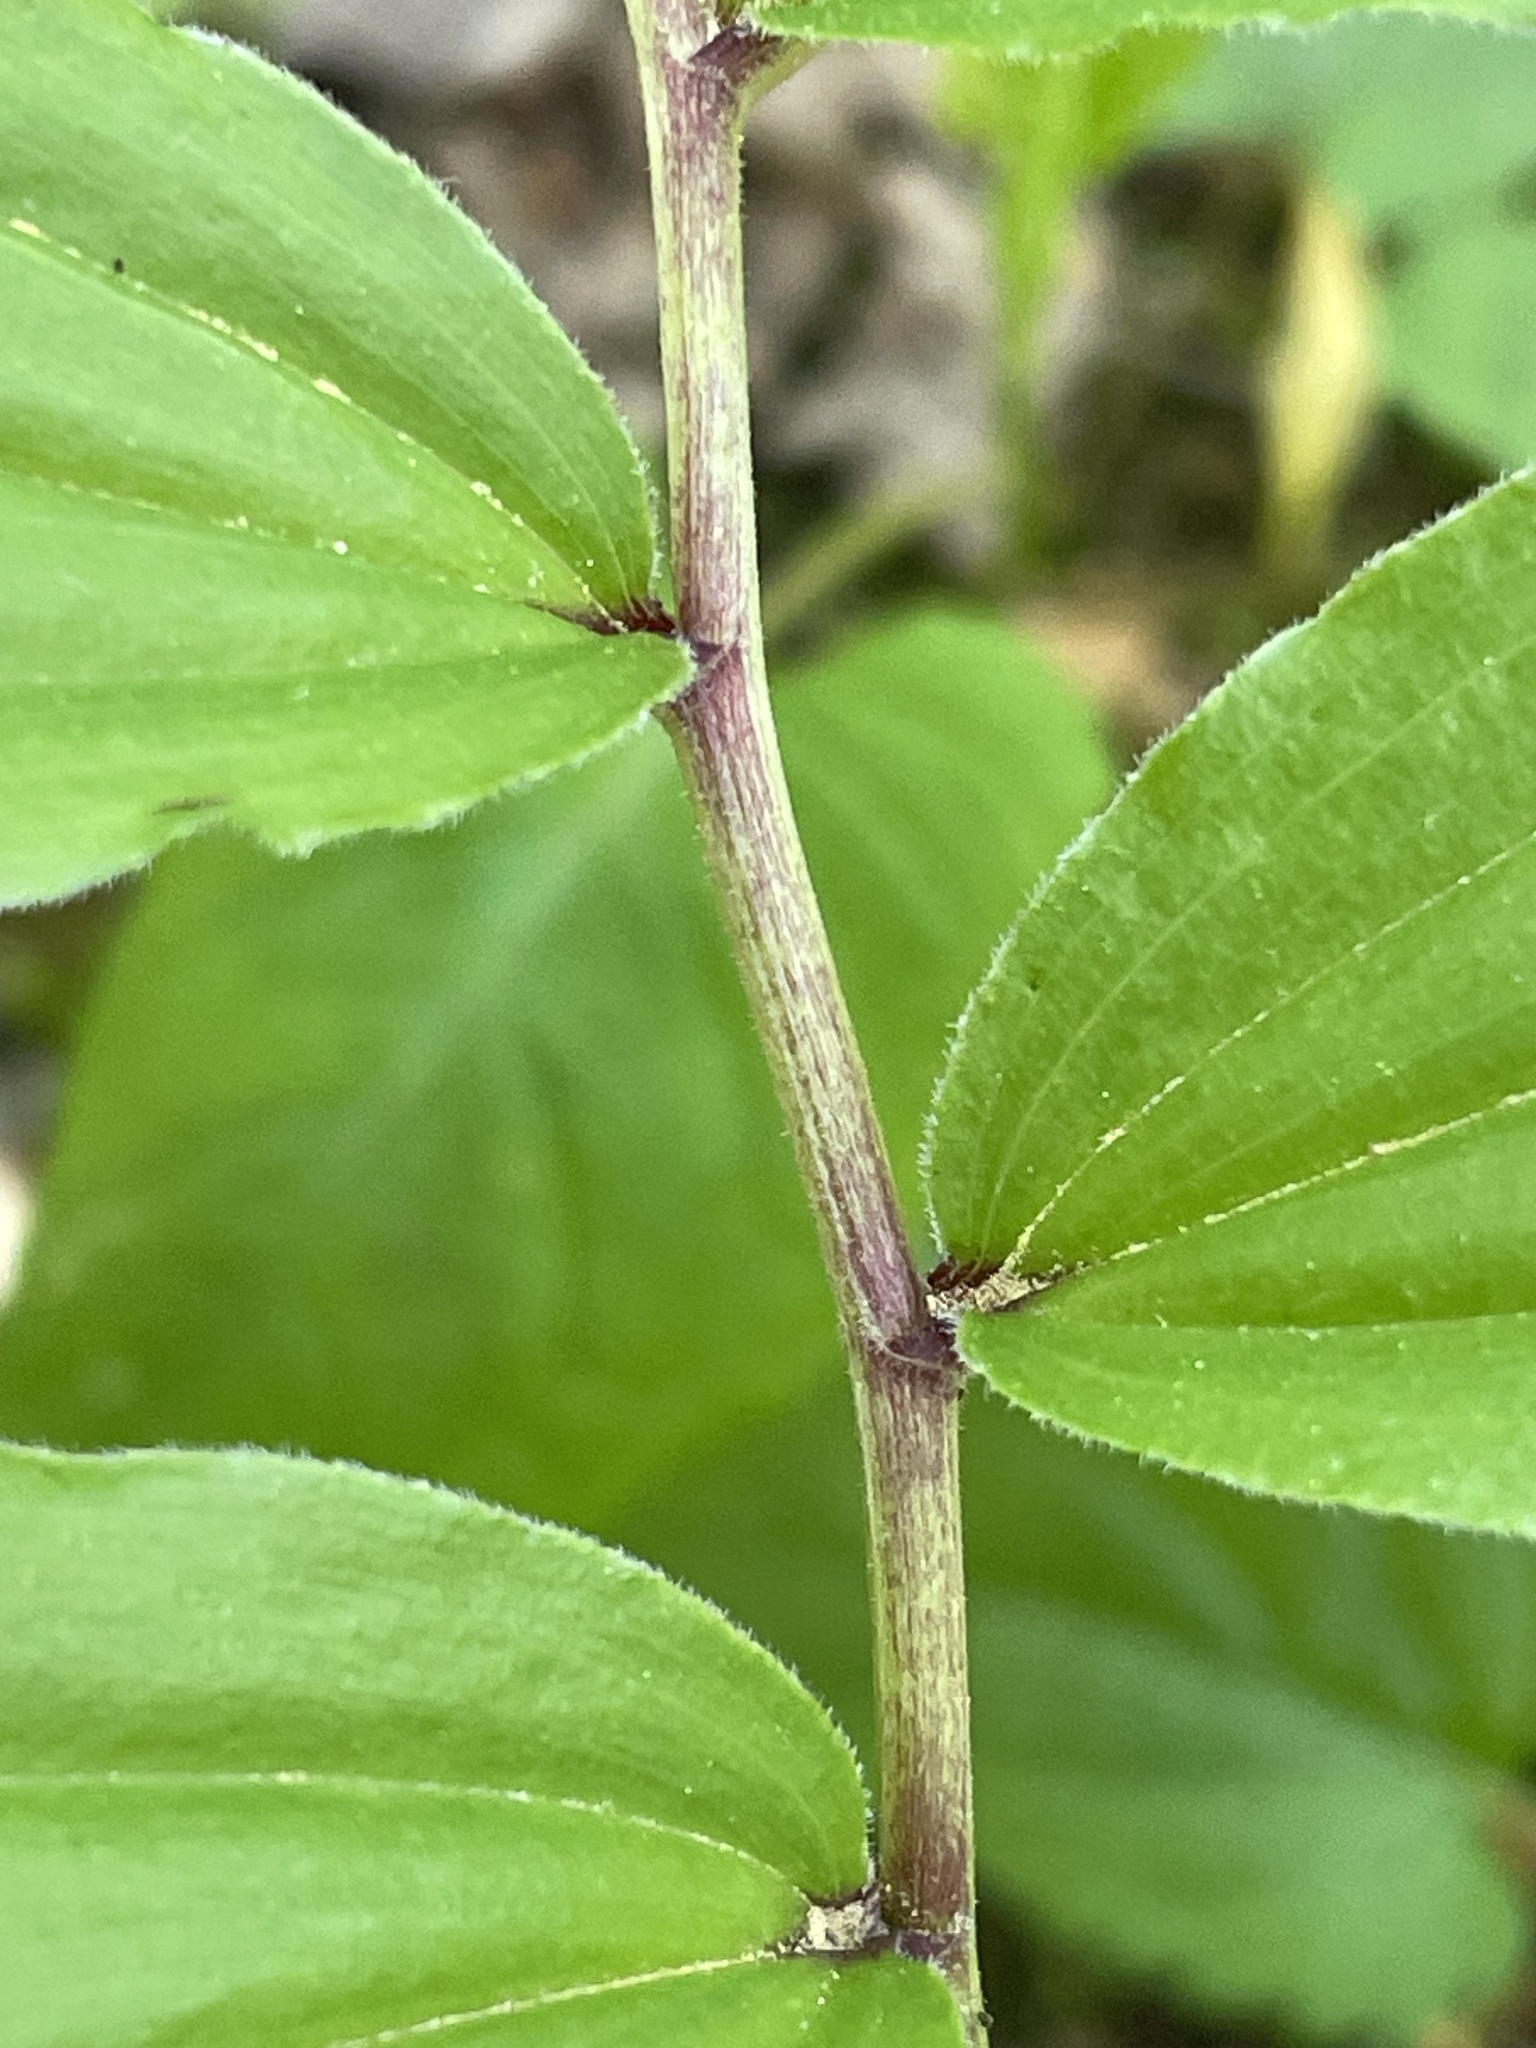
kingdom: Plantae
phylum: Tracheophyta
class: Liliopsida
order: Asparagales
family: Asparagaceae
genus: Maianthemum
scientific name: Maianthemum racemosum
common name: False spikenard
